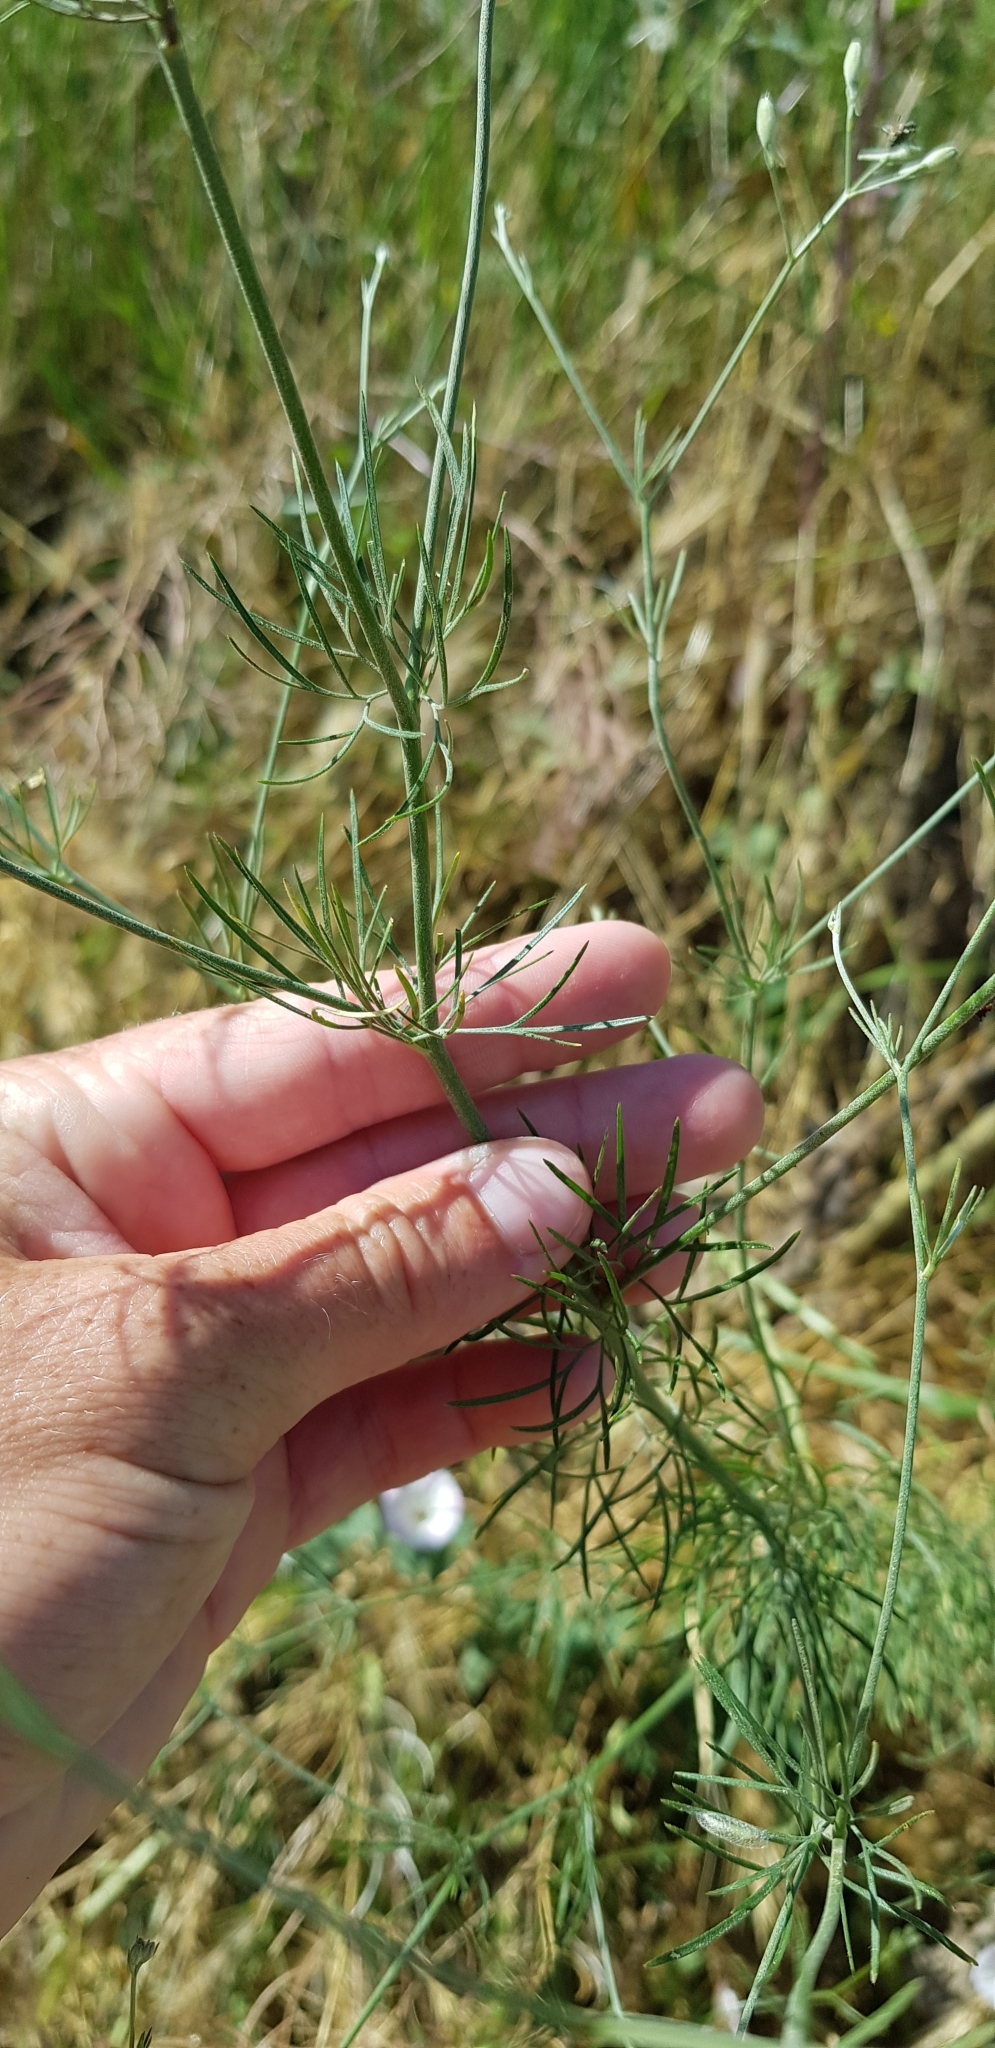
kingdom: Plantae
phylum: Tracheophyta
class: Magnoliopsida
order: Ranunculales
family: Ranunculaceae
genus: Delphinium
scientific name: Delphinium consolida
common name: Branching larkspur
